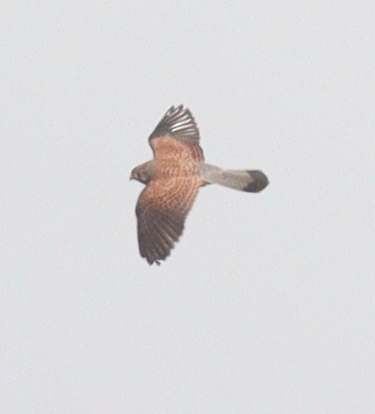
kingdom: Animalia
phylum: Chordata
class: Aves
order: Falconiformes
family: Falconidae
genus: Falco
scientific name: Falco tinnunculus
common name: Common kestrel
